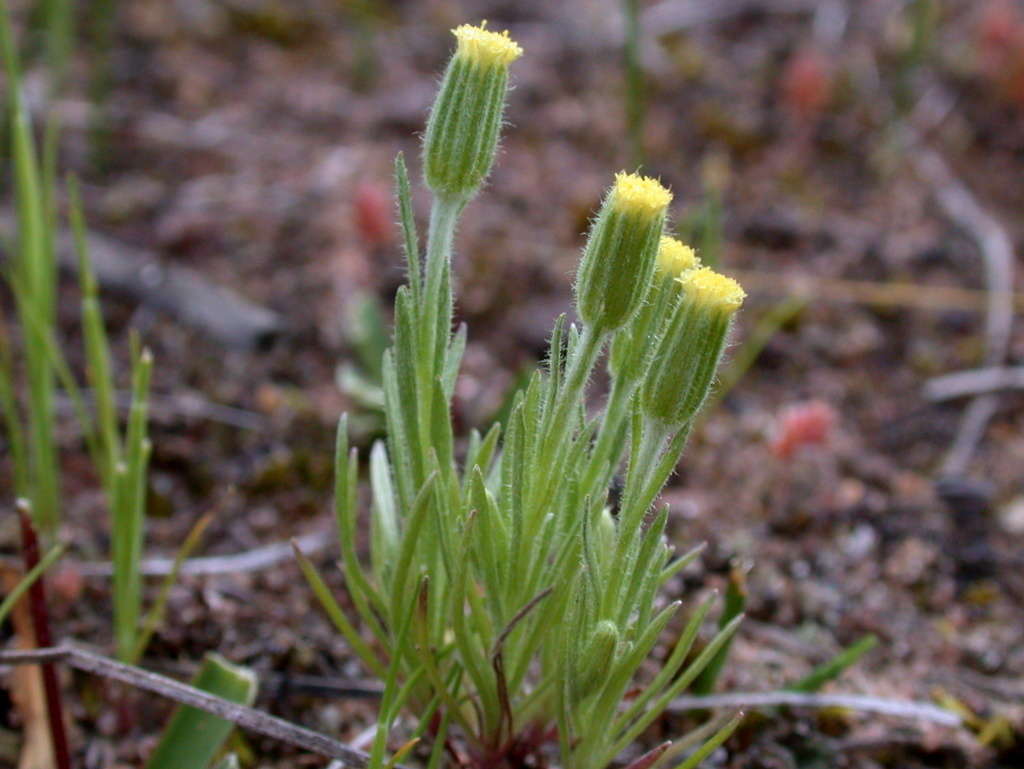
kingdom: Plantae
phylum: Tracheophyta
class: Magnoliopsida
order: Asterales
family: Asteraceae
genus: Millotia
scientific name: Millotia tenuifolia
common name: Soft millotia
